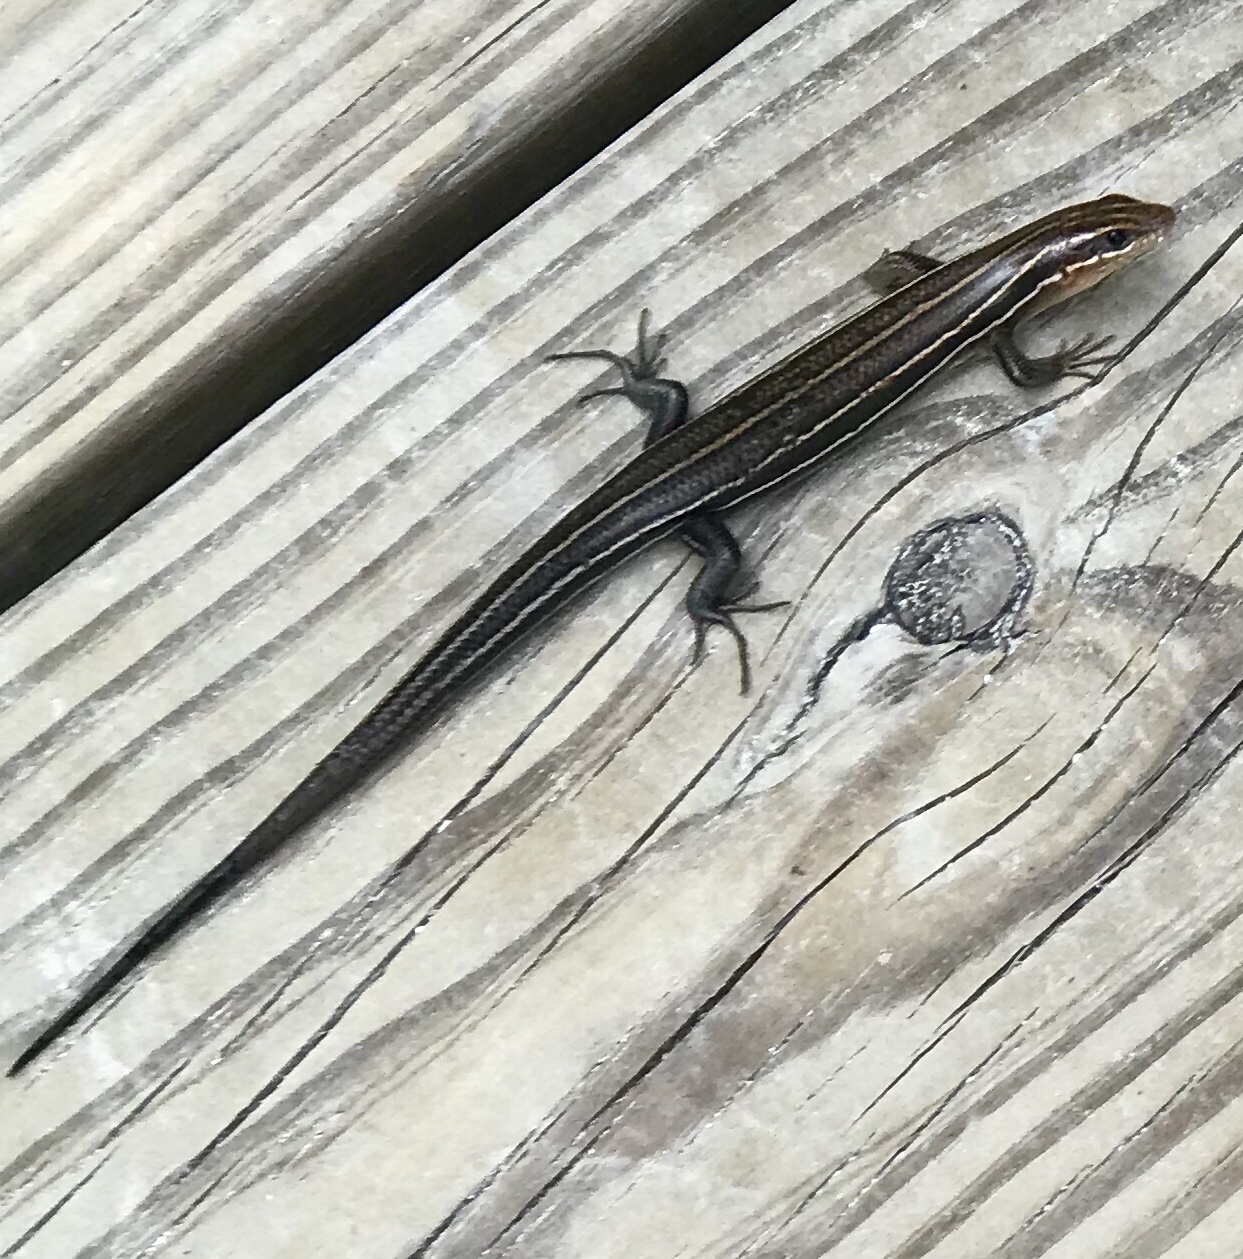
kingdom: Animalia
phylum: Chordata
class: Squamata
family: Scincidae
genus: Plestiodon
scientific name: Plestiodon inexpectatus
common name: Southeastern five-lined skink
